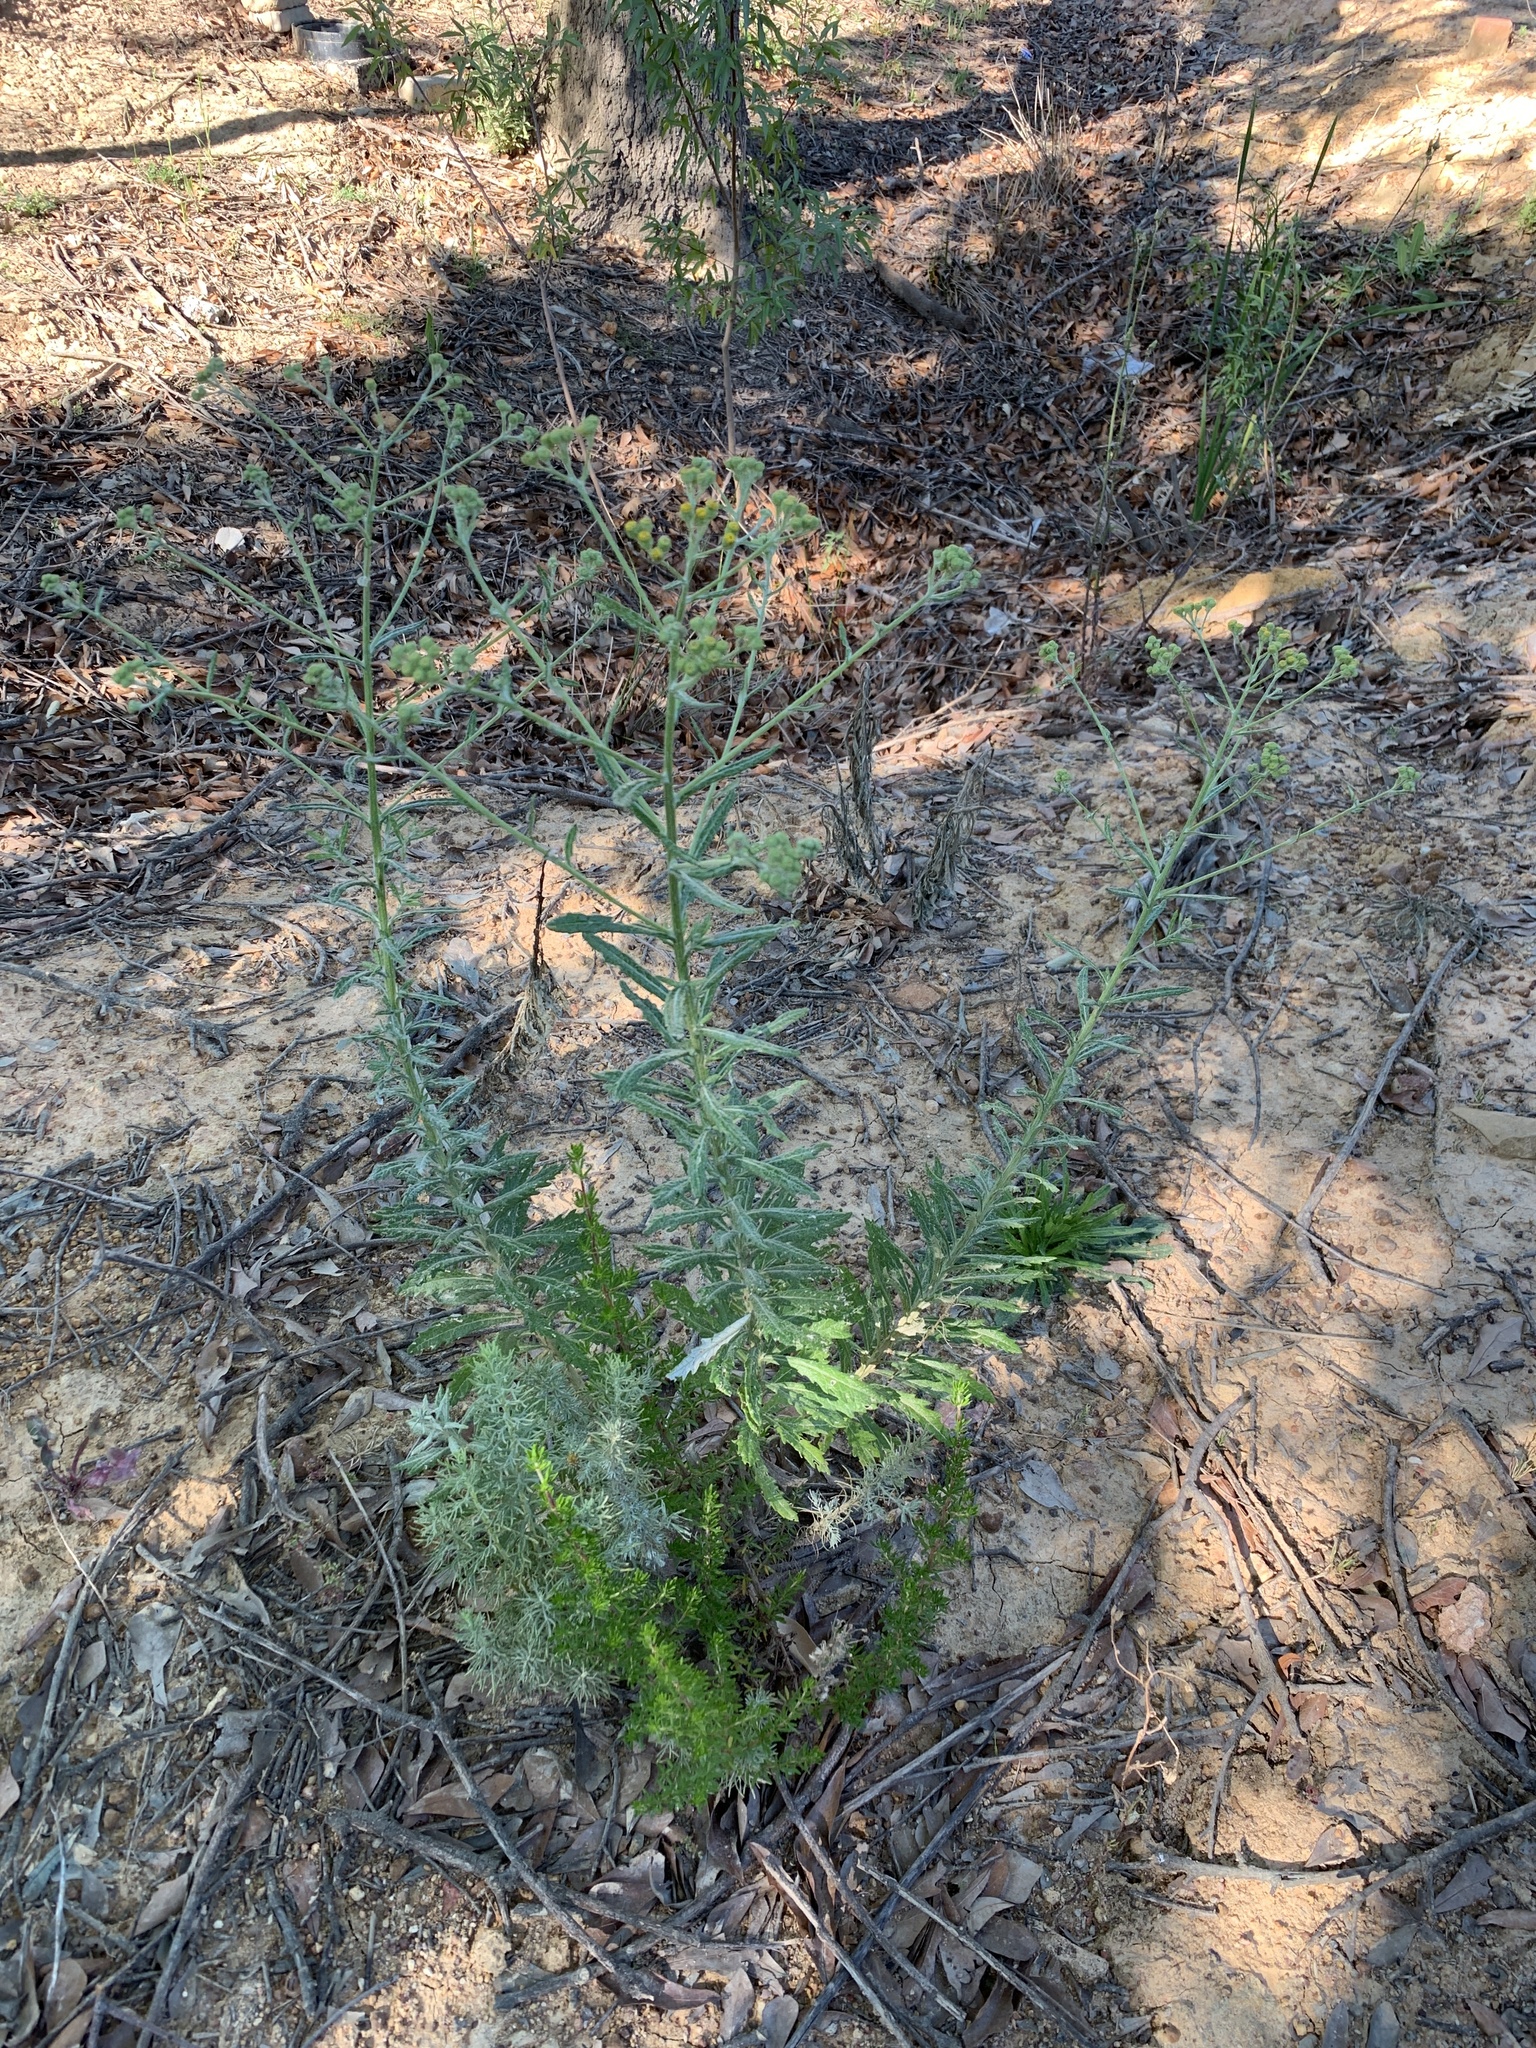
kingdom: Plantae
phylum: Tracheophyta
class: Magnoliopsida
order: Asterales
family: Asteraceae
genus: Senecio
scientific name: Senecio pterophorus
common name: Shoddy ragwort
